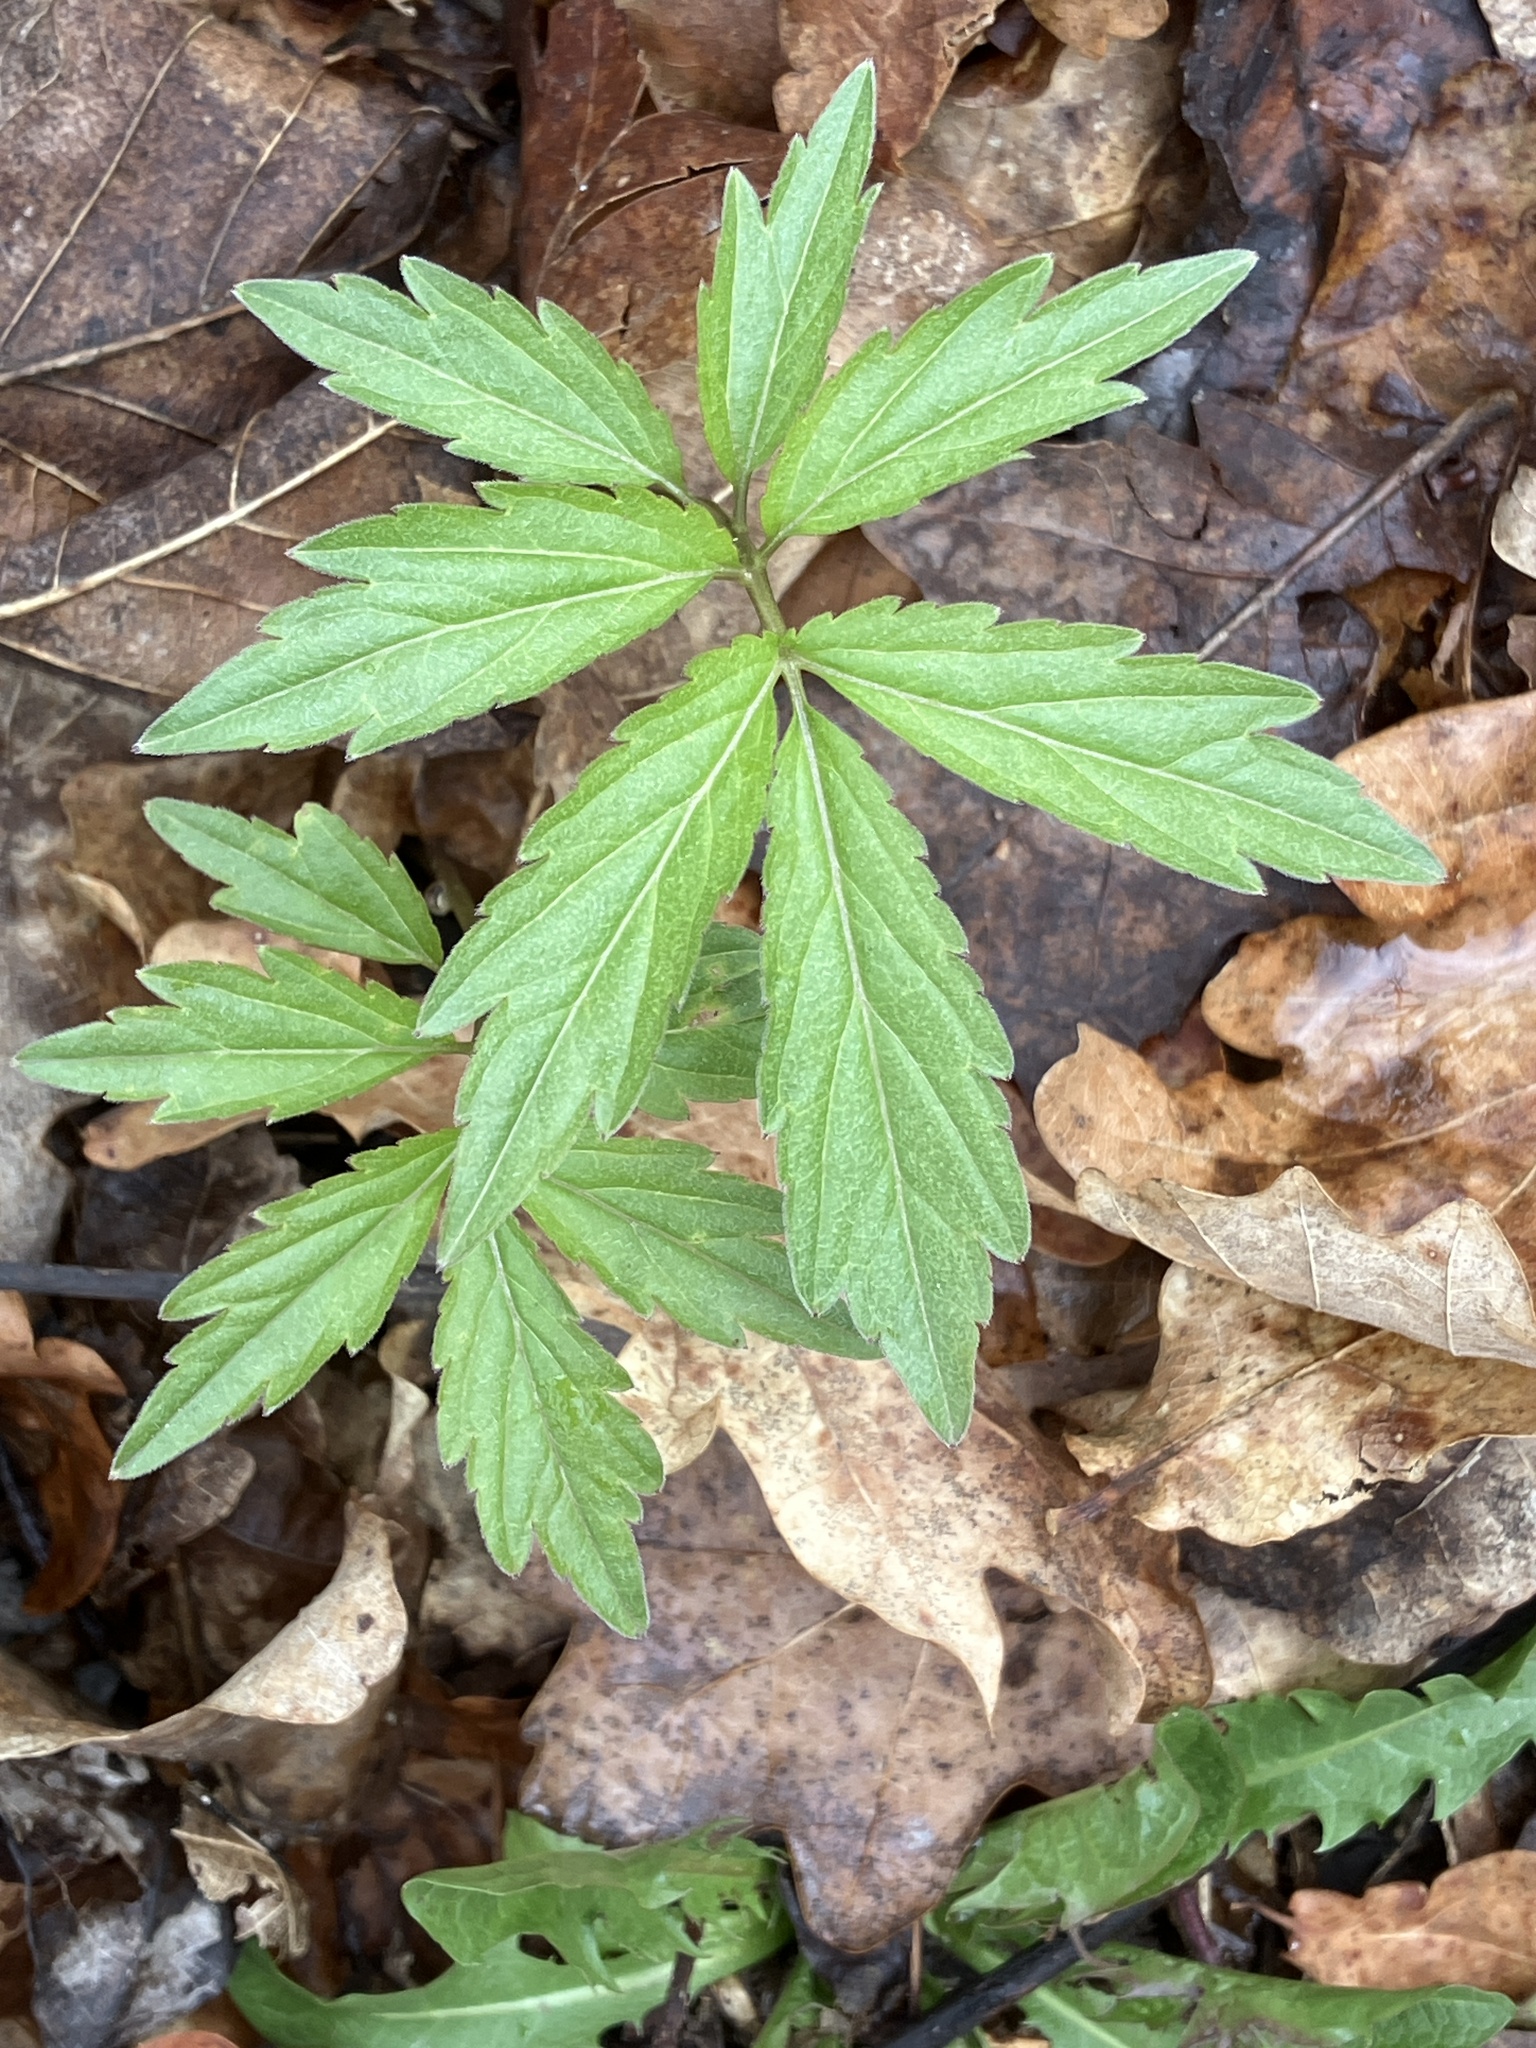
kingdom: Plantae
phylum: Tracheophyta
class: Magnoliopsida
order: Brassicales
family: Brassicaceae
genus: Cardamine
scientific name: Cardamine bulbifera
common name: Coralroot bittercress
